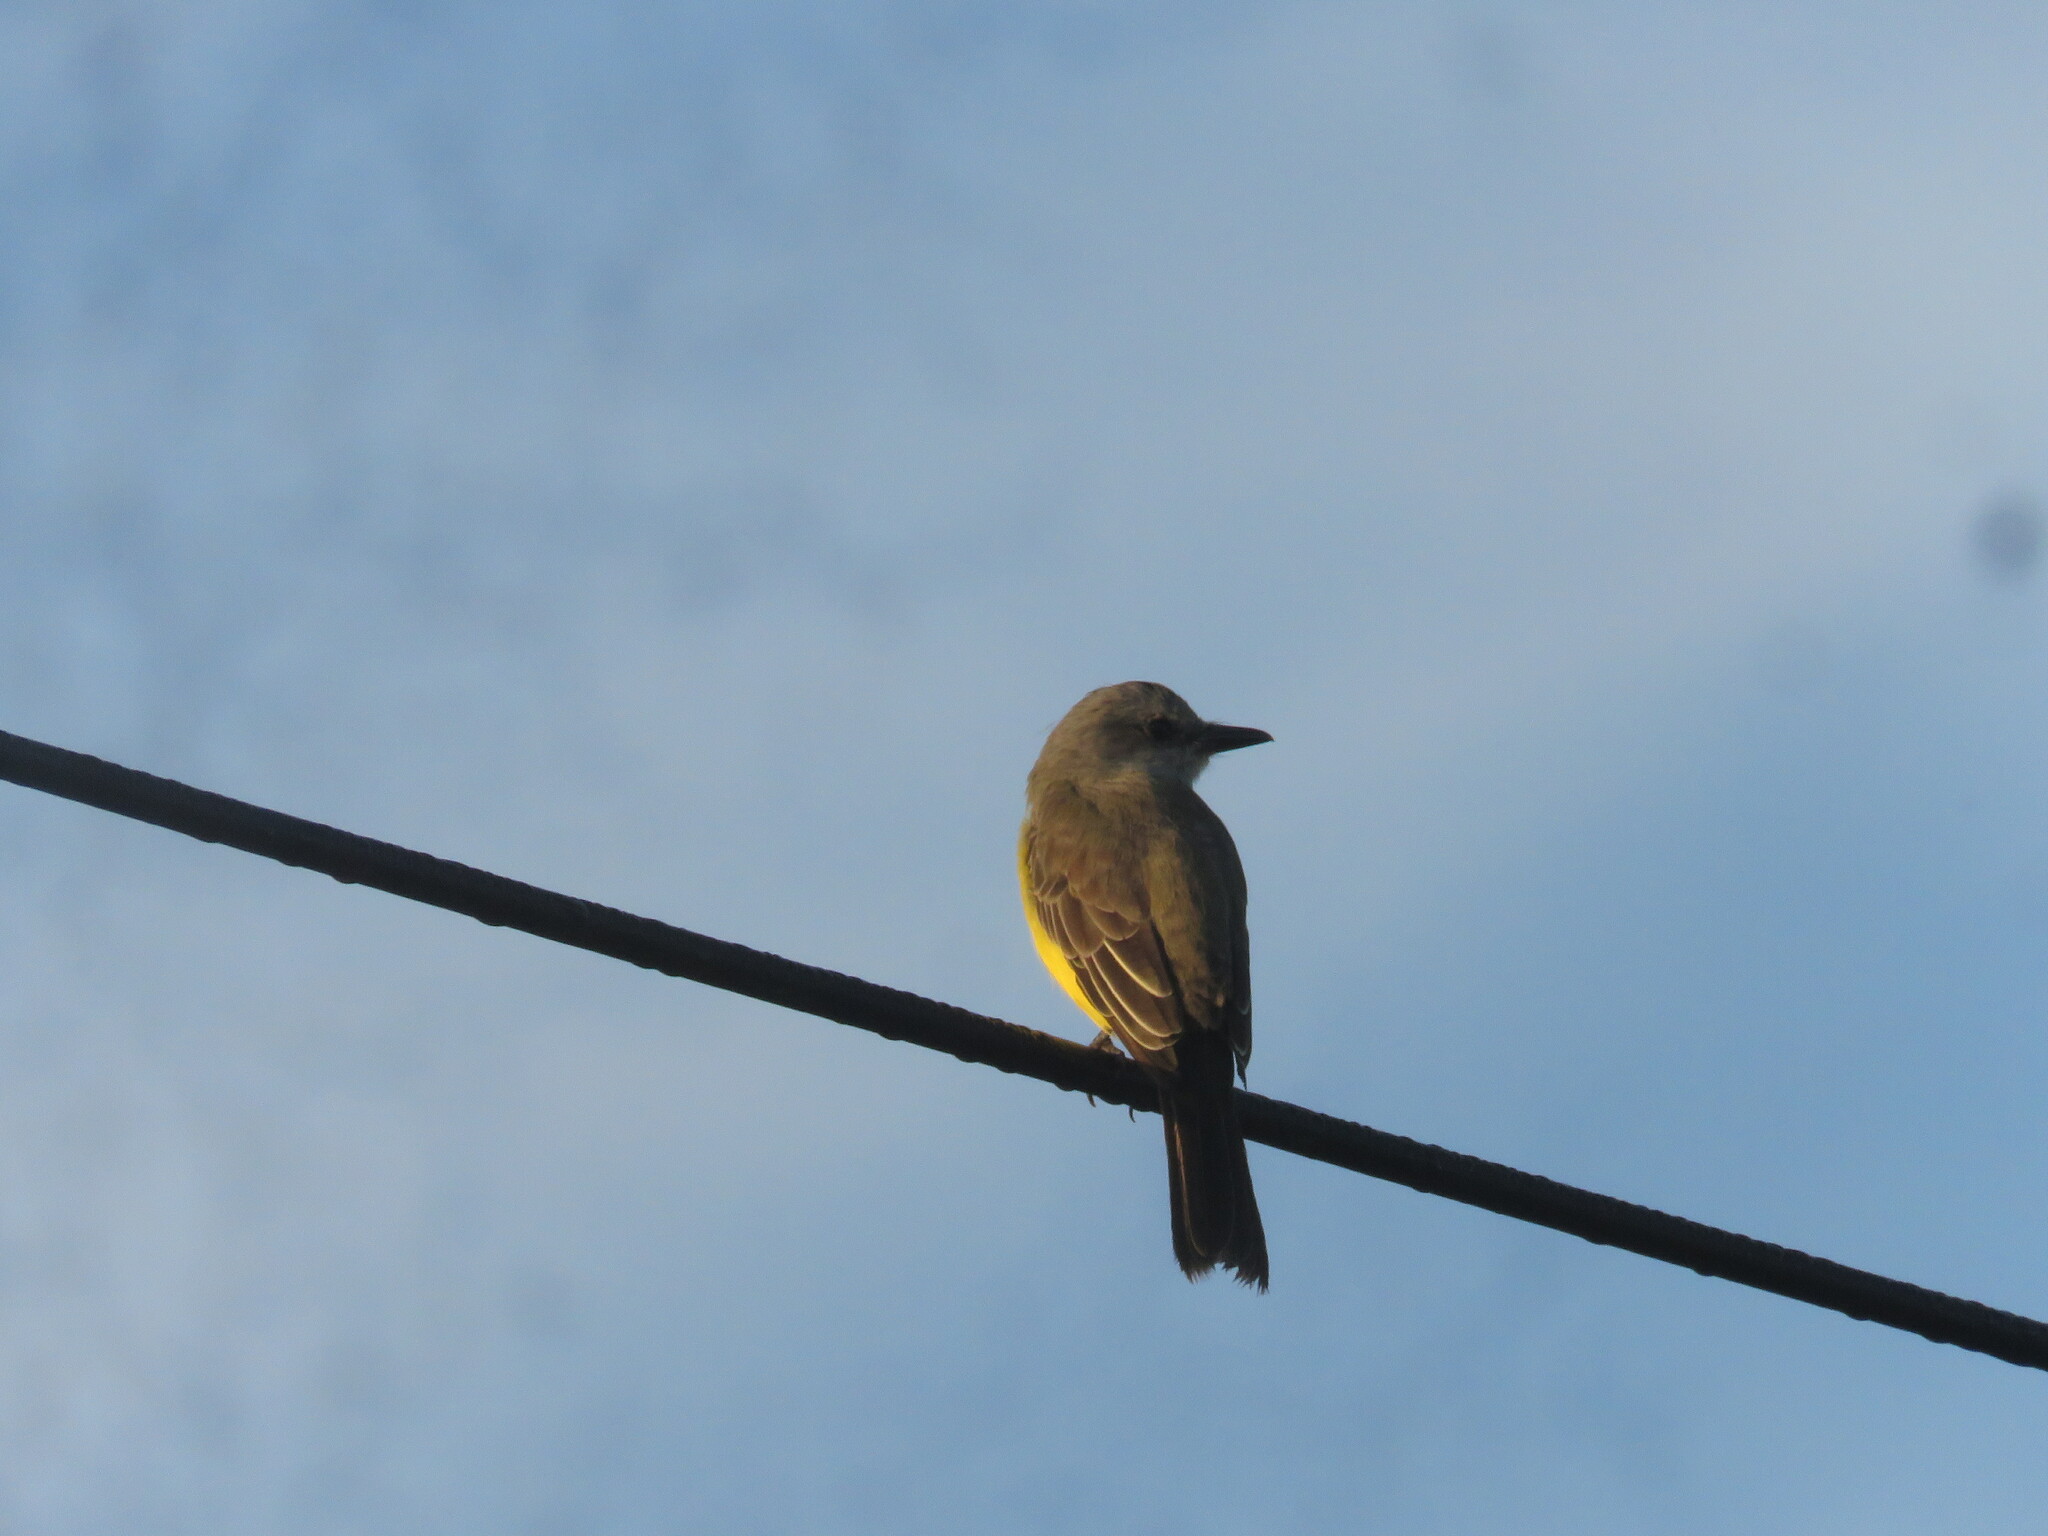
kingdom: Animalia
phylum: Chordata
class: Aves
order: Passeriformes
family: Tyrannidae
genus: Tyrannus
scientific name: Tyrannus melancholicus
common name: Tropical kingbird
